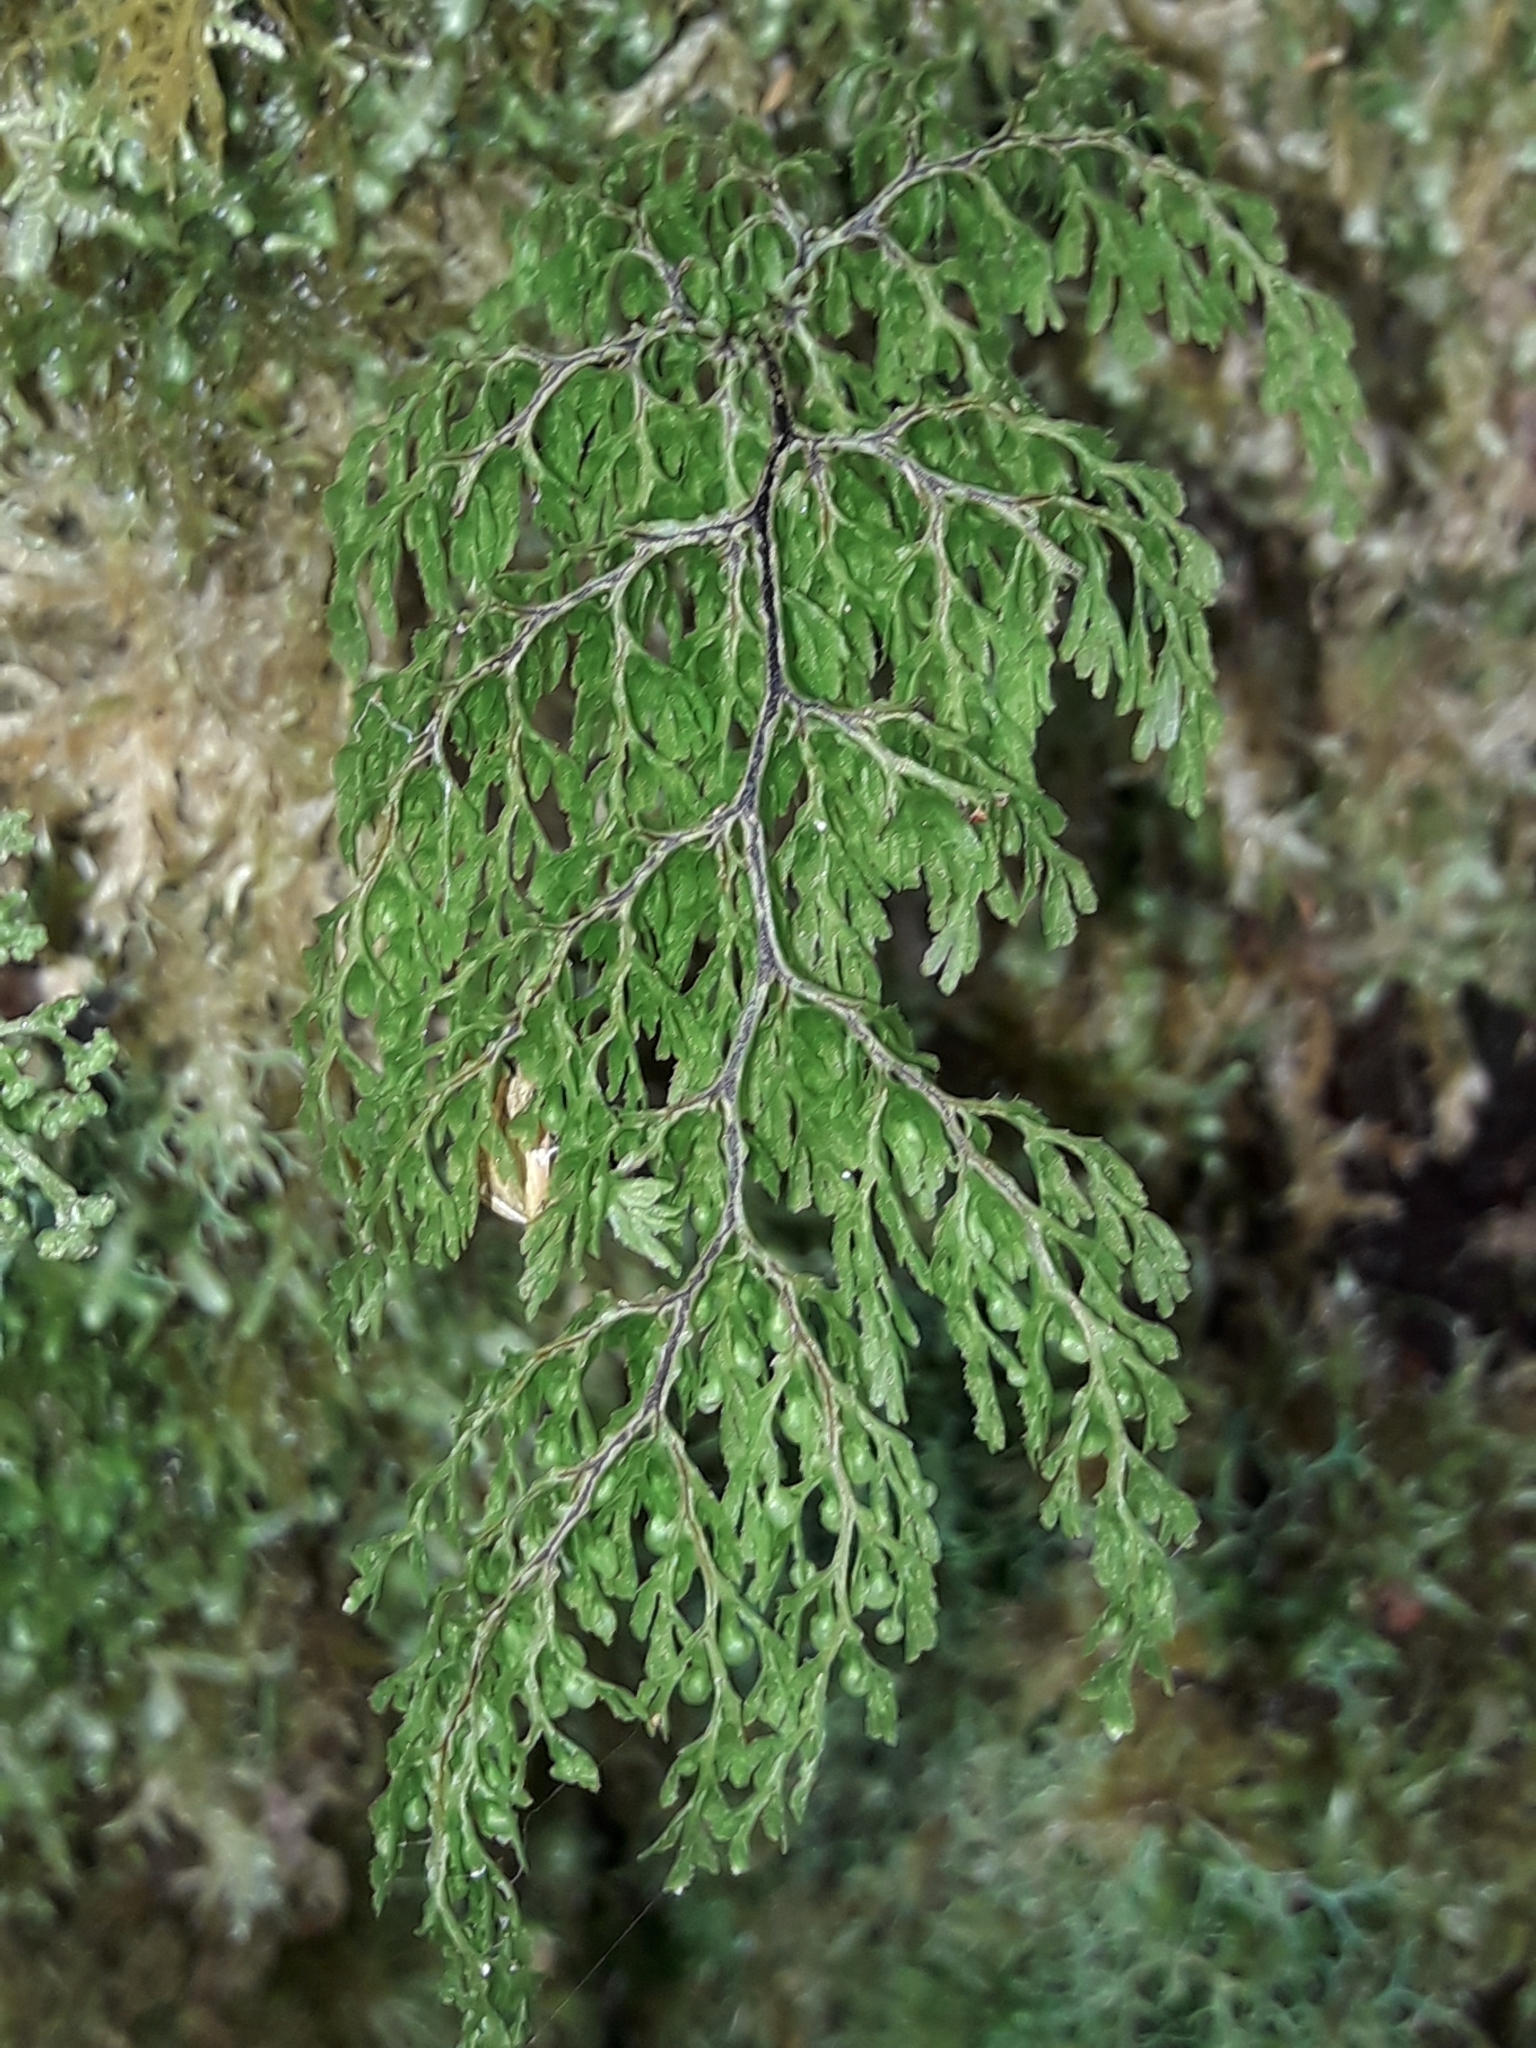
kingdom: Plantae
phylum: Tracheophyta
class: Polypodiopsida
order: Hymenophyllales
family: Hymenophyllaceae
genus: Hymenophyllum
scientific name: Hymenophyllum bivalve
